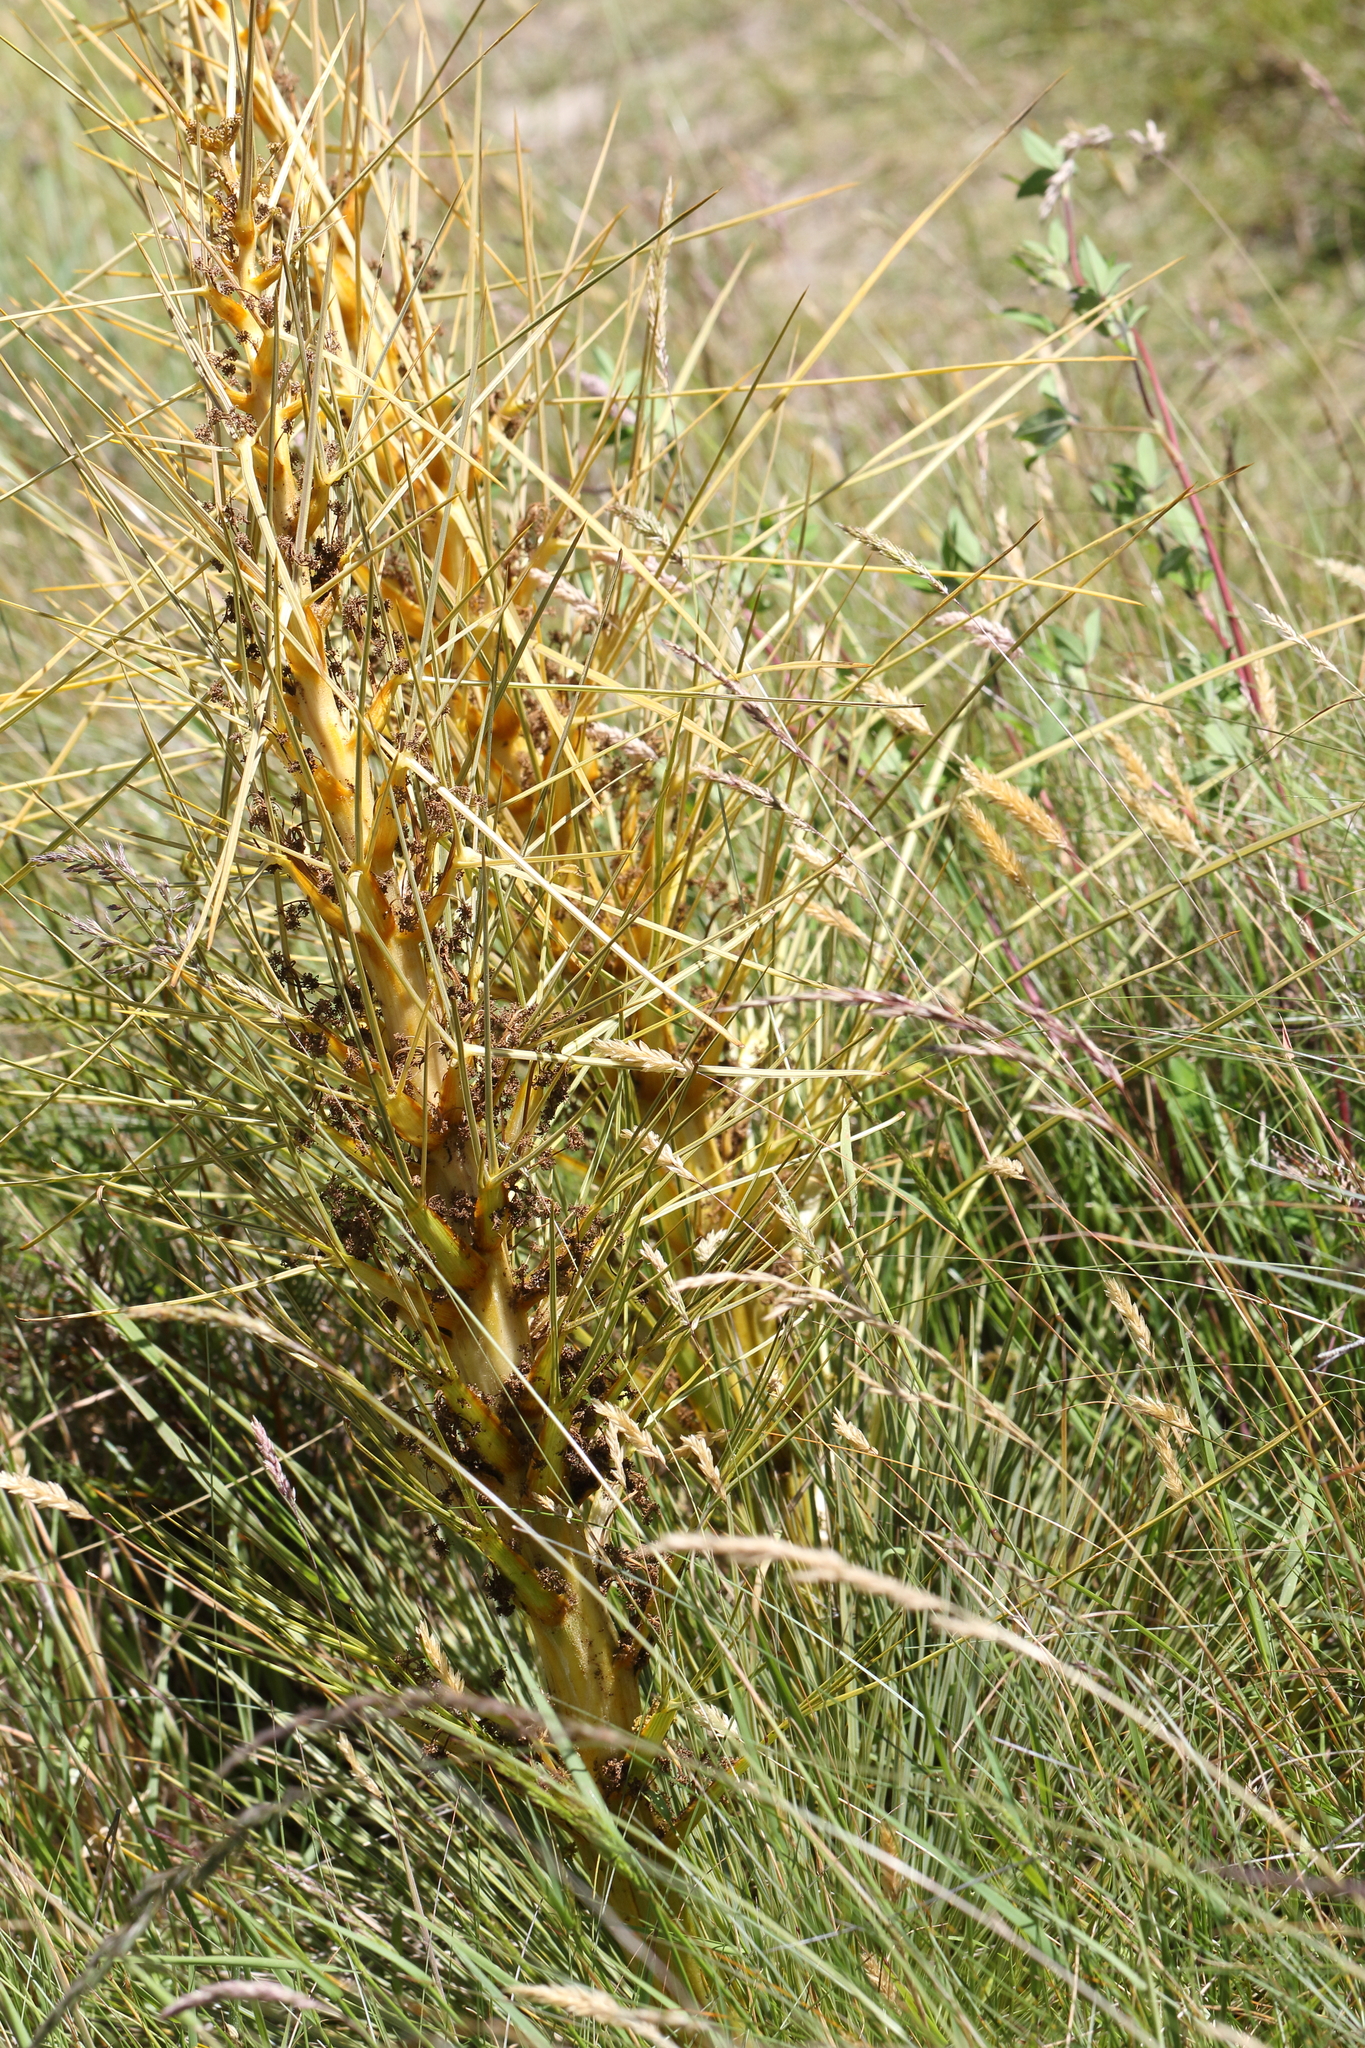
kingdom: Plantae
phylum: Tracheophyta
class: Magnoliopsida
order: Apiales
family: Apiaceae
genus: Aciphylla
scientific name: Aciphylla subflabellata
